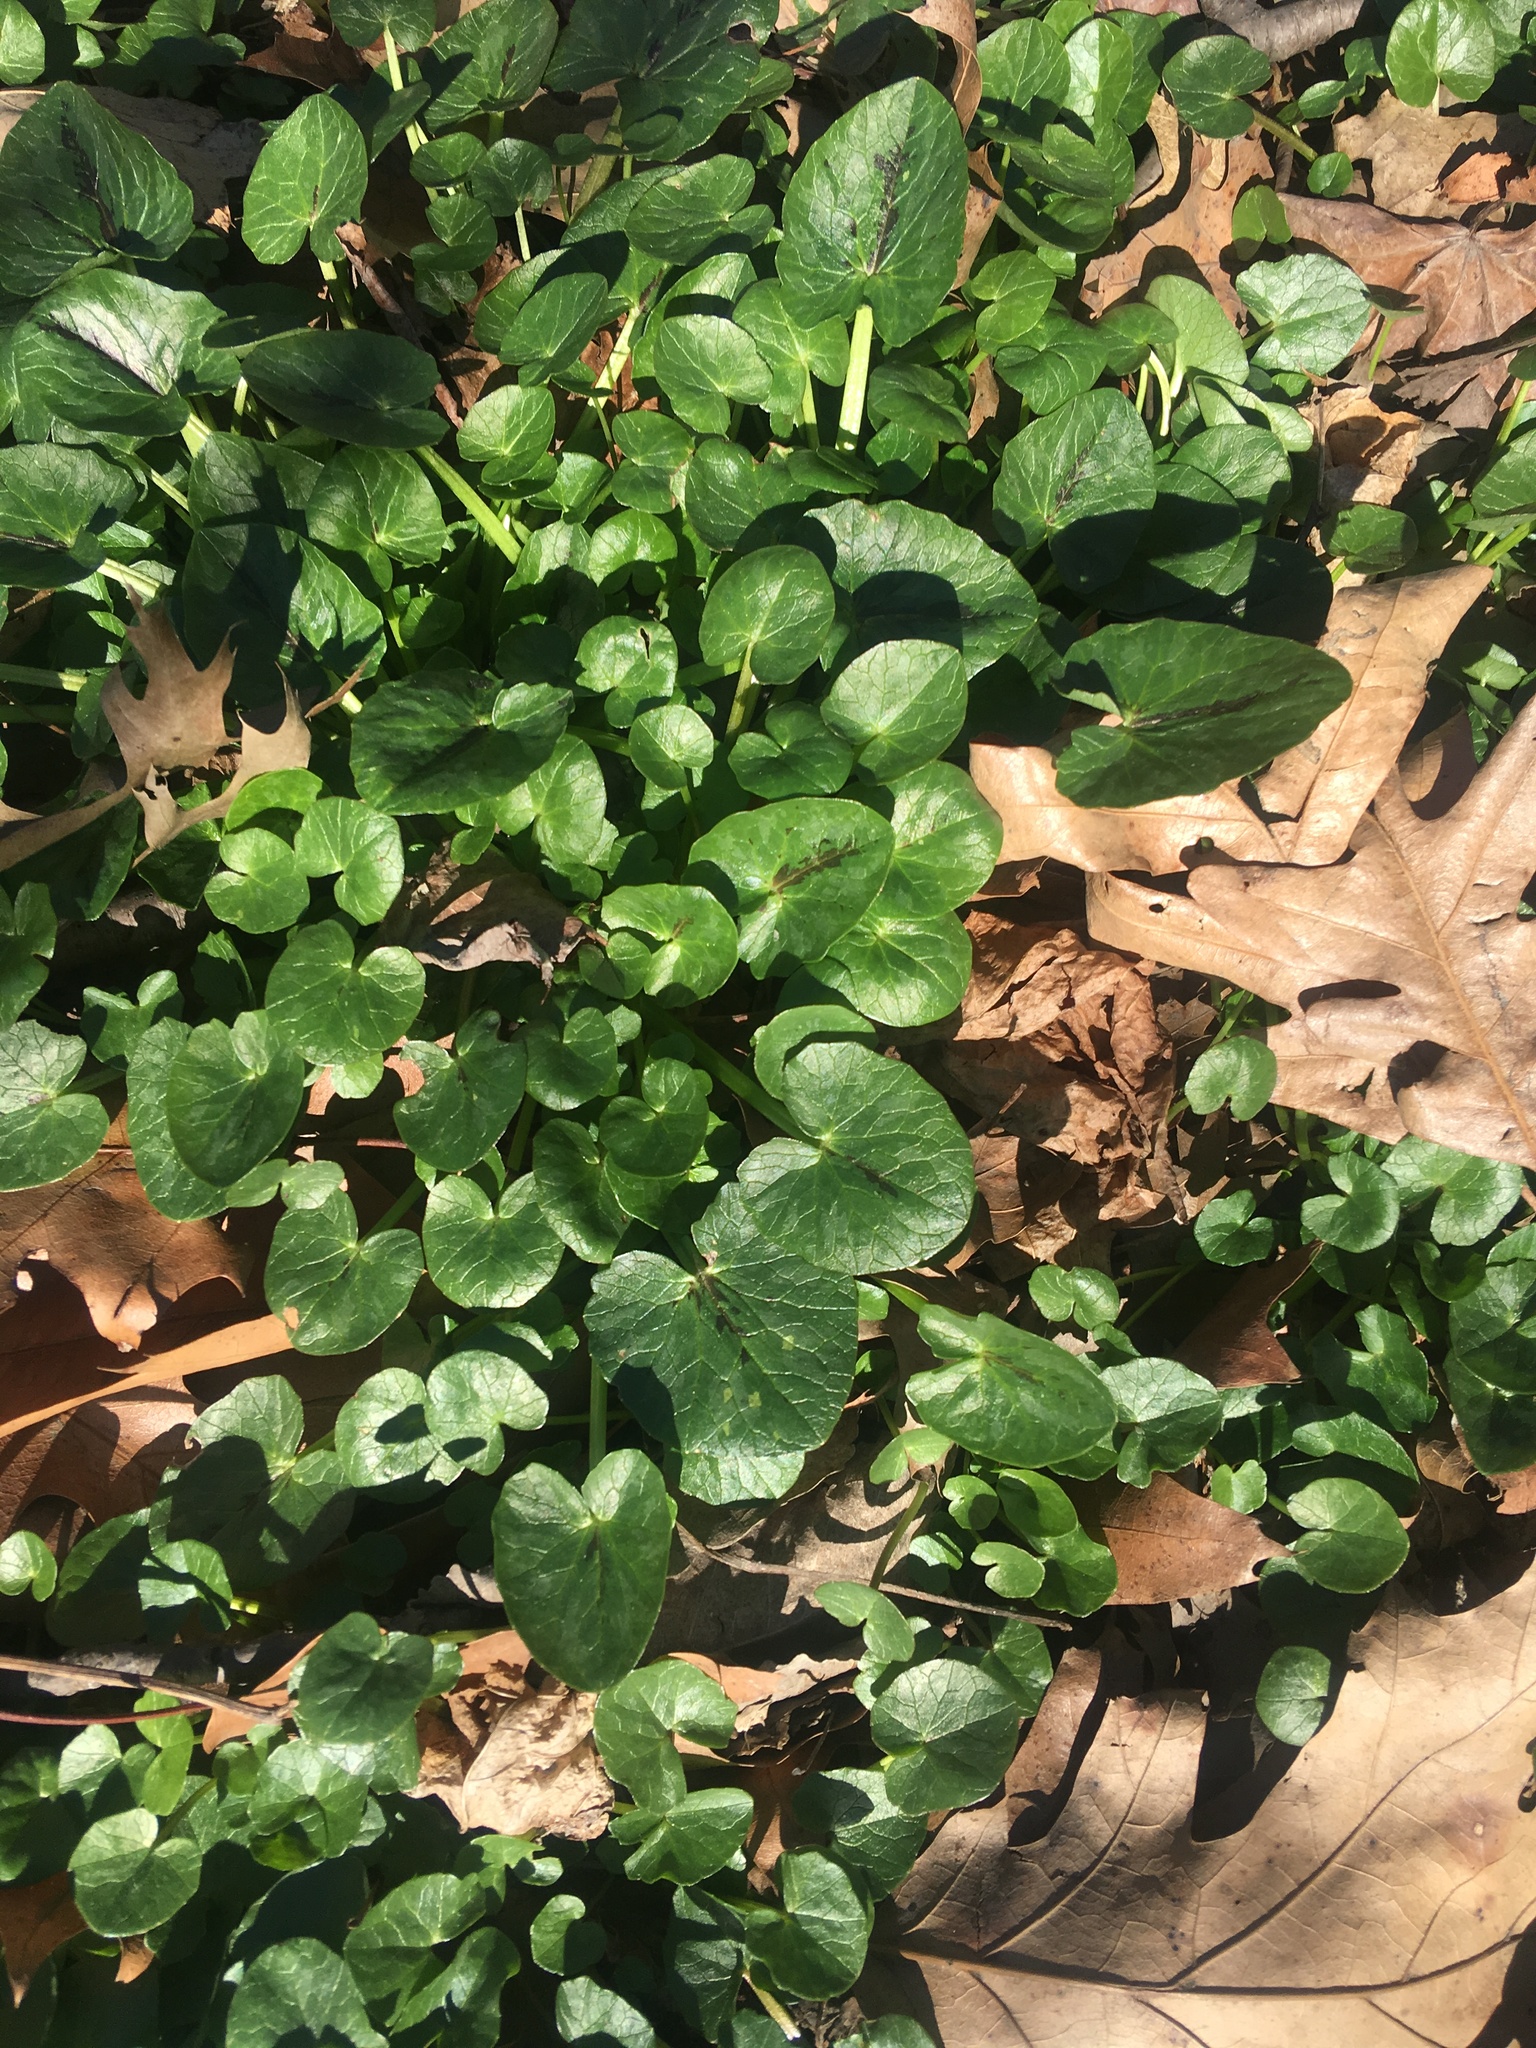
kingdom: Plantae
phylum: Tracheophyta
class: Magnoliopsida
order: Ranunculales
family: Ranunculaceae
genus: Ficaria
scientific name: Ficaria verna
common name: Lesser celandine
